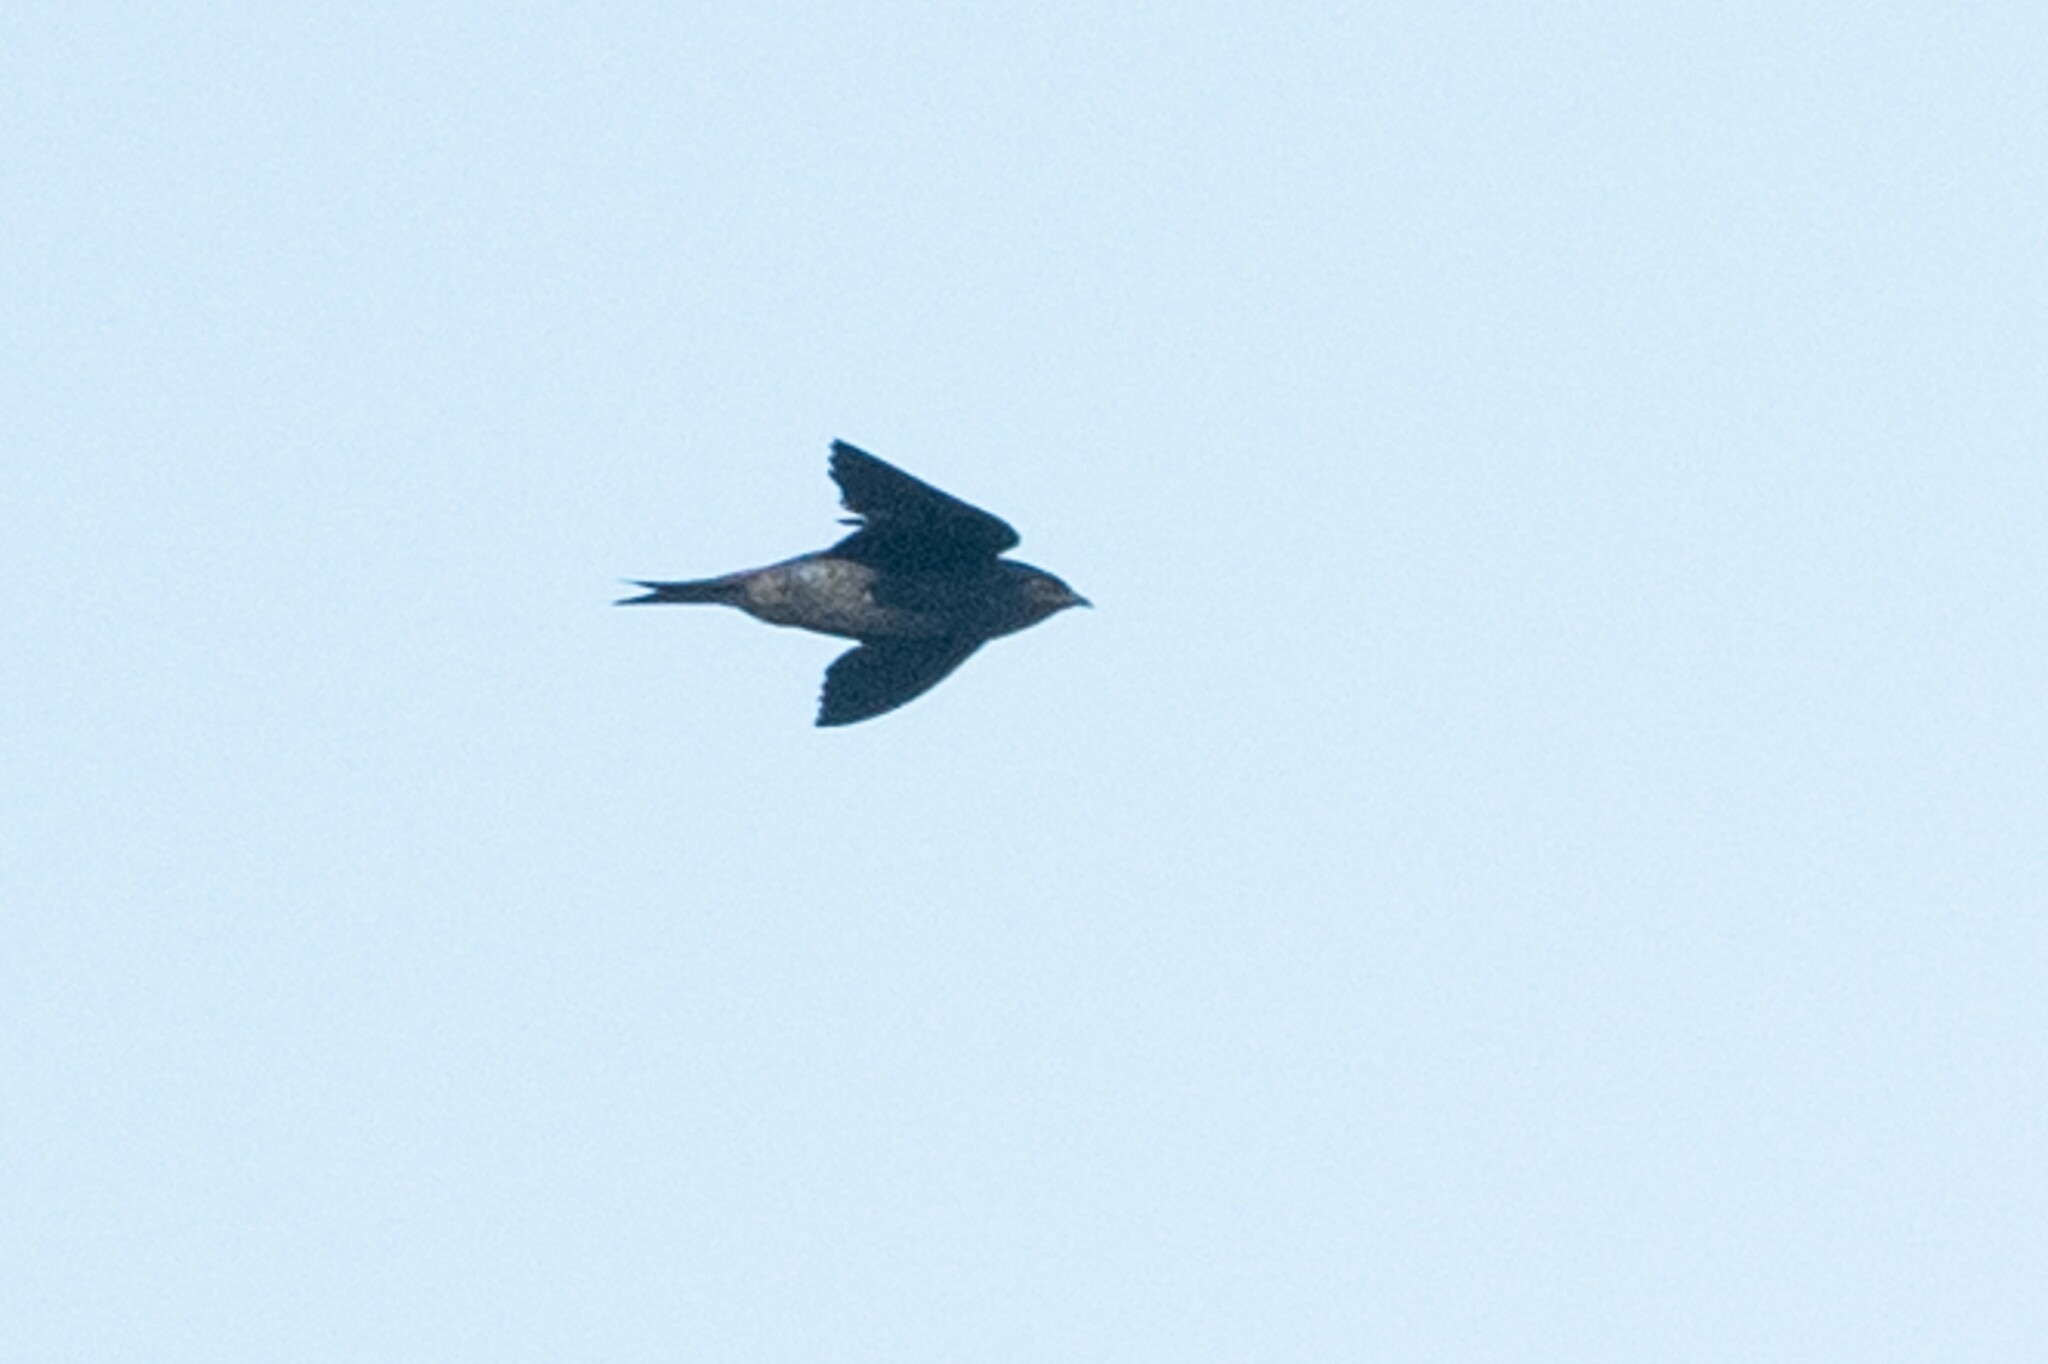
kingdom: Animalia
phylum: Chordata
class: Aves
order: Passeriformes
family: Hirundinidae
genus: Progne
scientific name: Progne subis
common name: Purple martin
